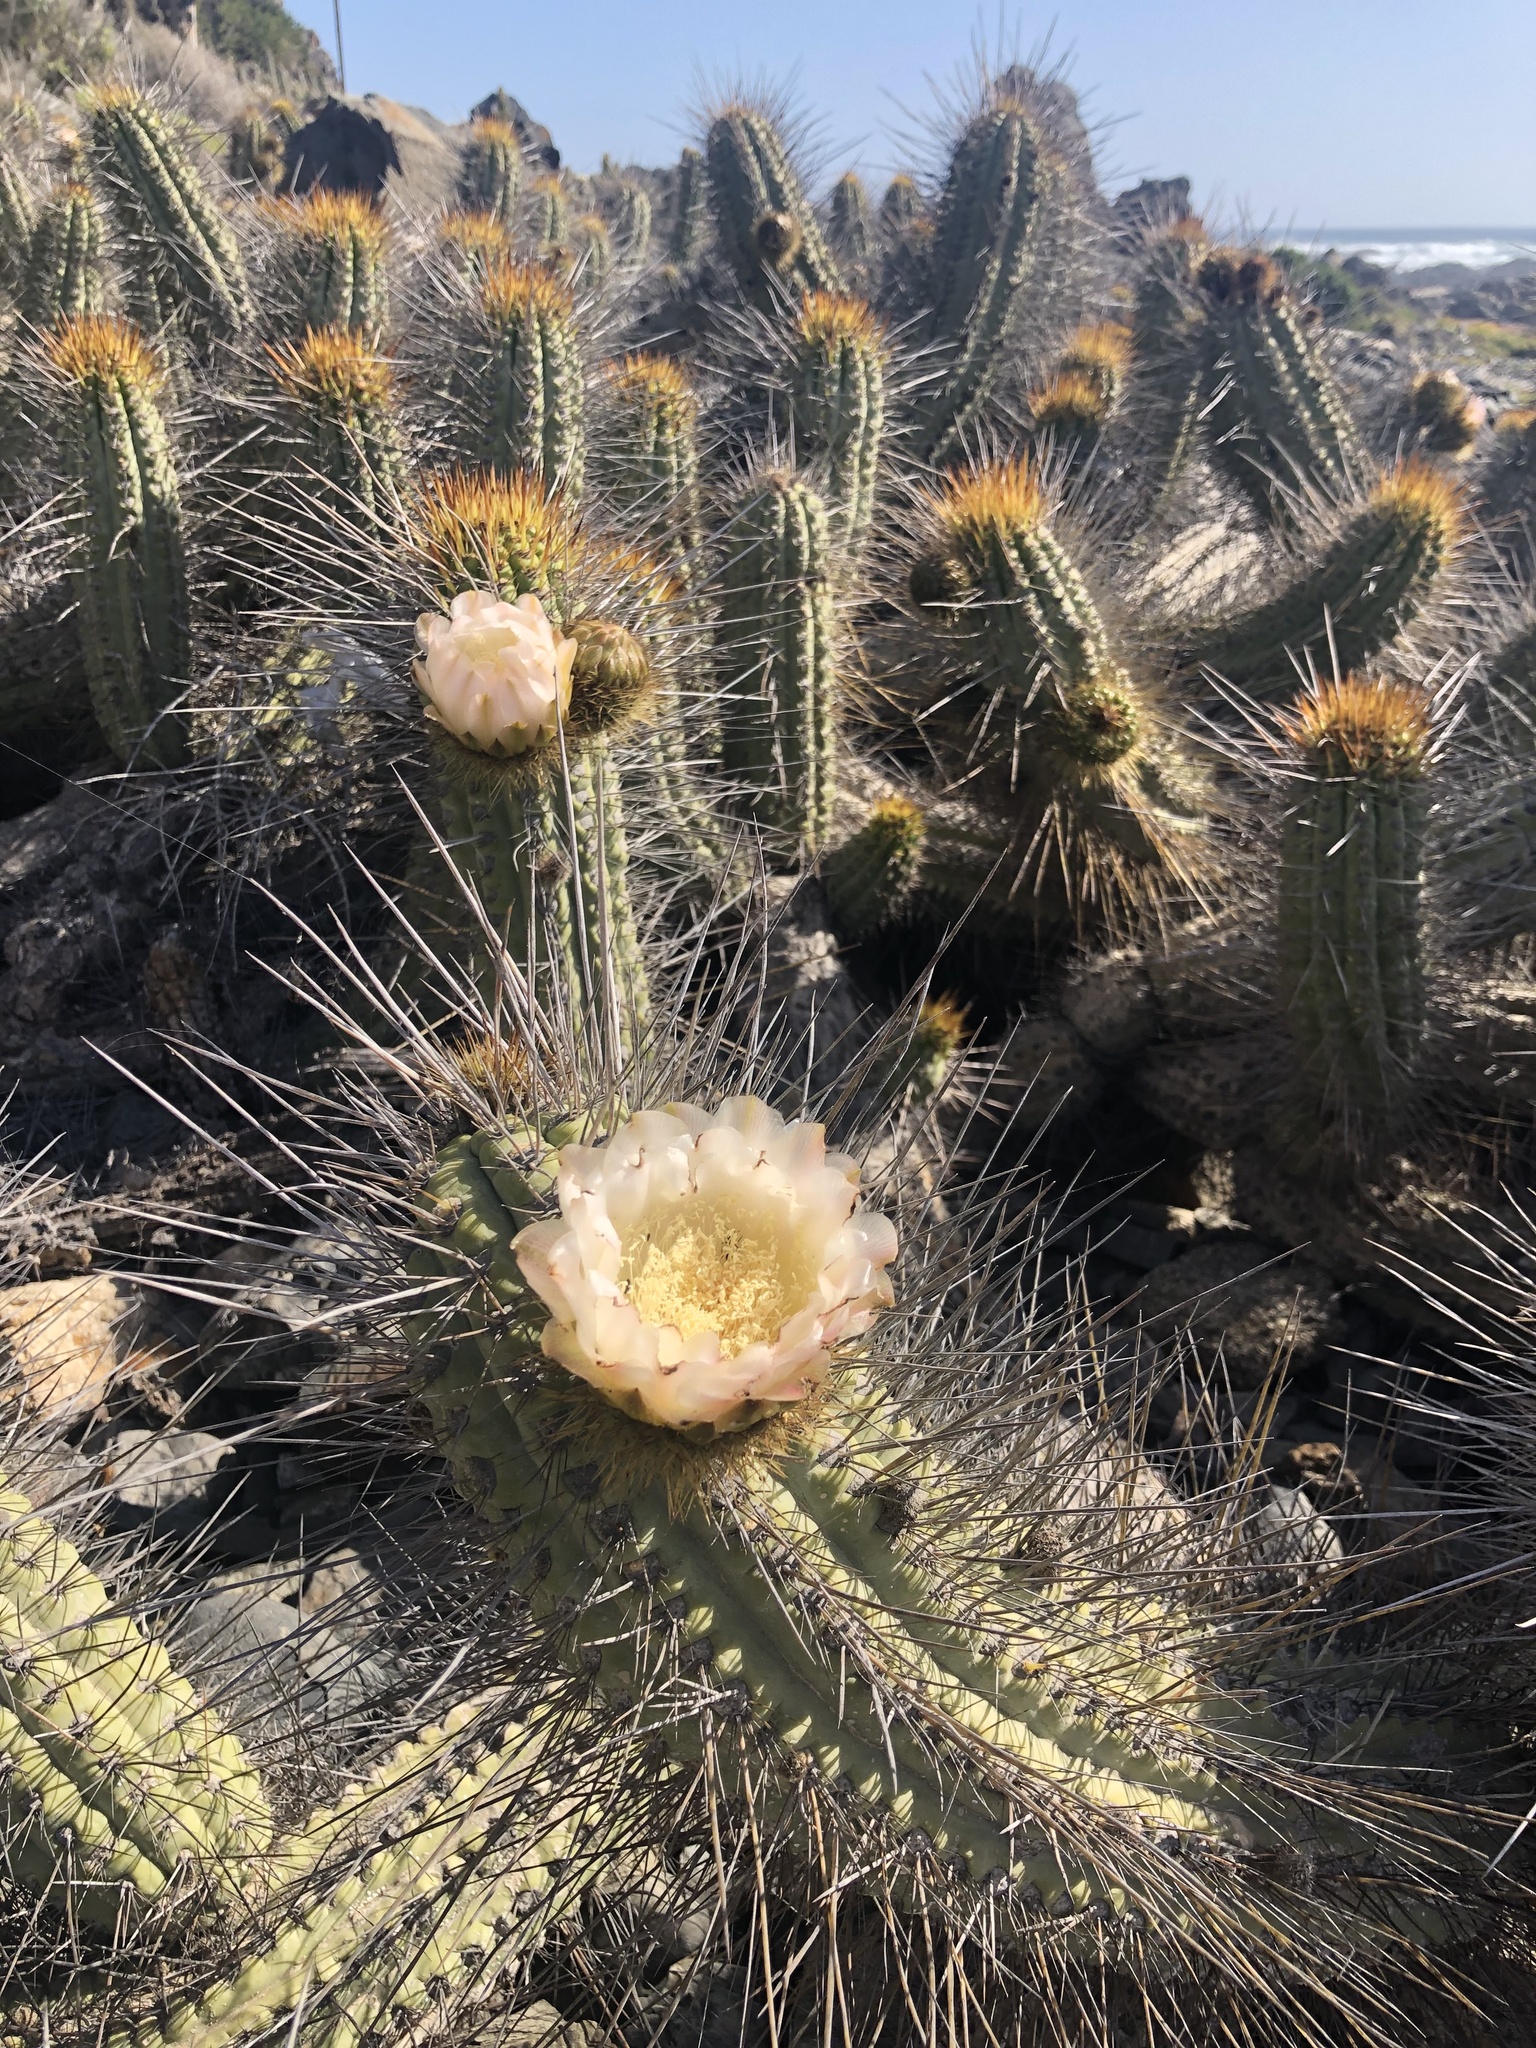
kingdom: Plantae
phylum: Tracheophyta
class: Magnoliopsida
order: Caryophyllales
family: Cactaceae
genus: Eulychnia
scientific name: Eulychnia castanea
